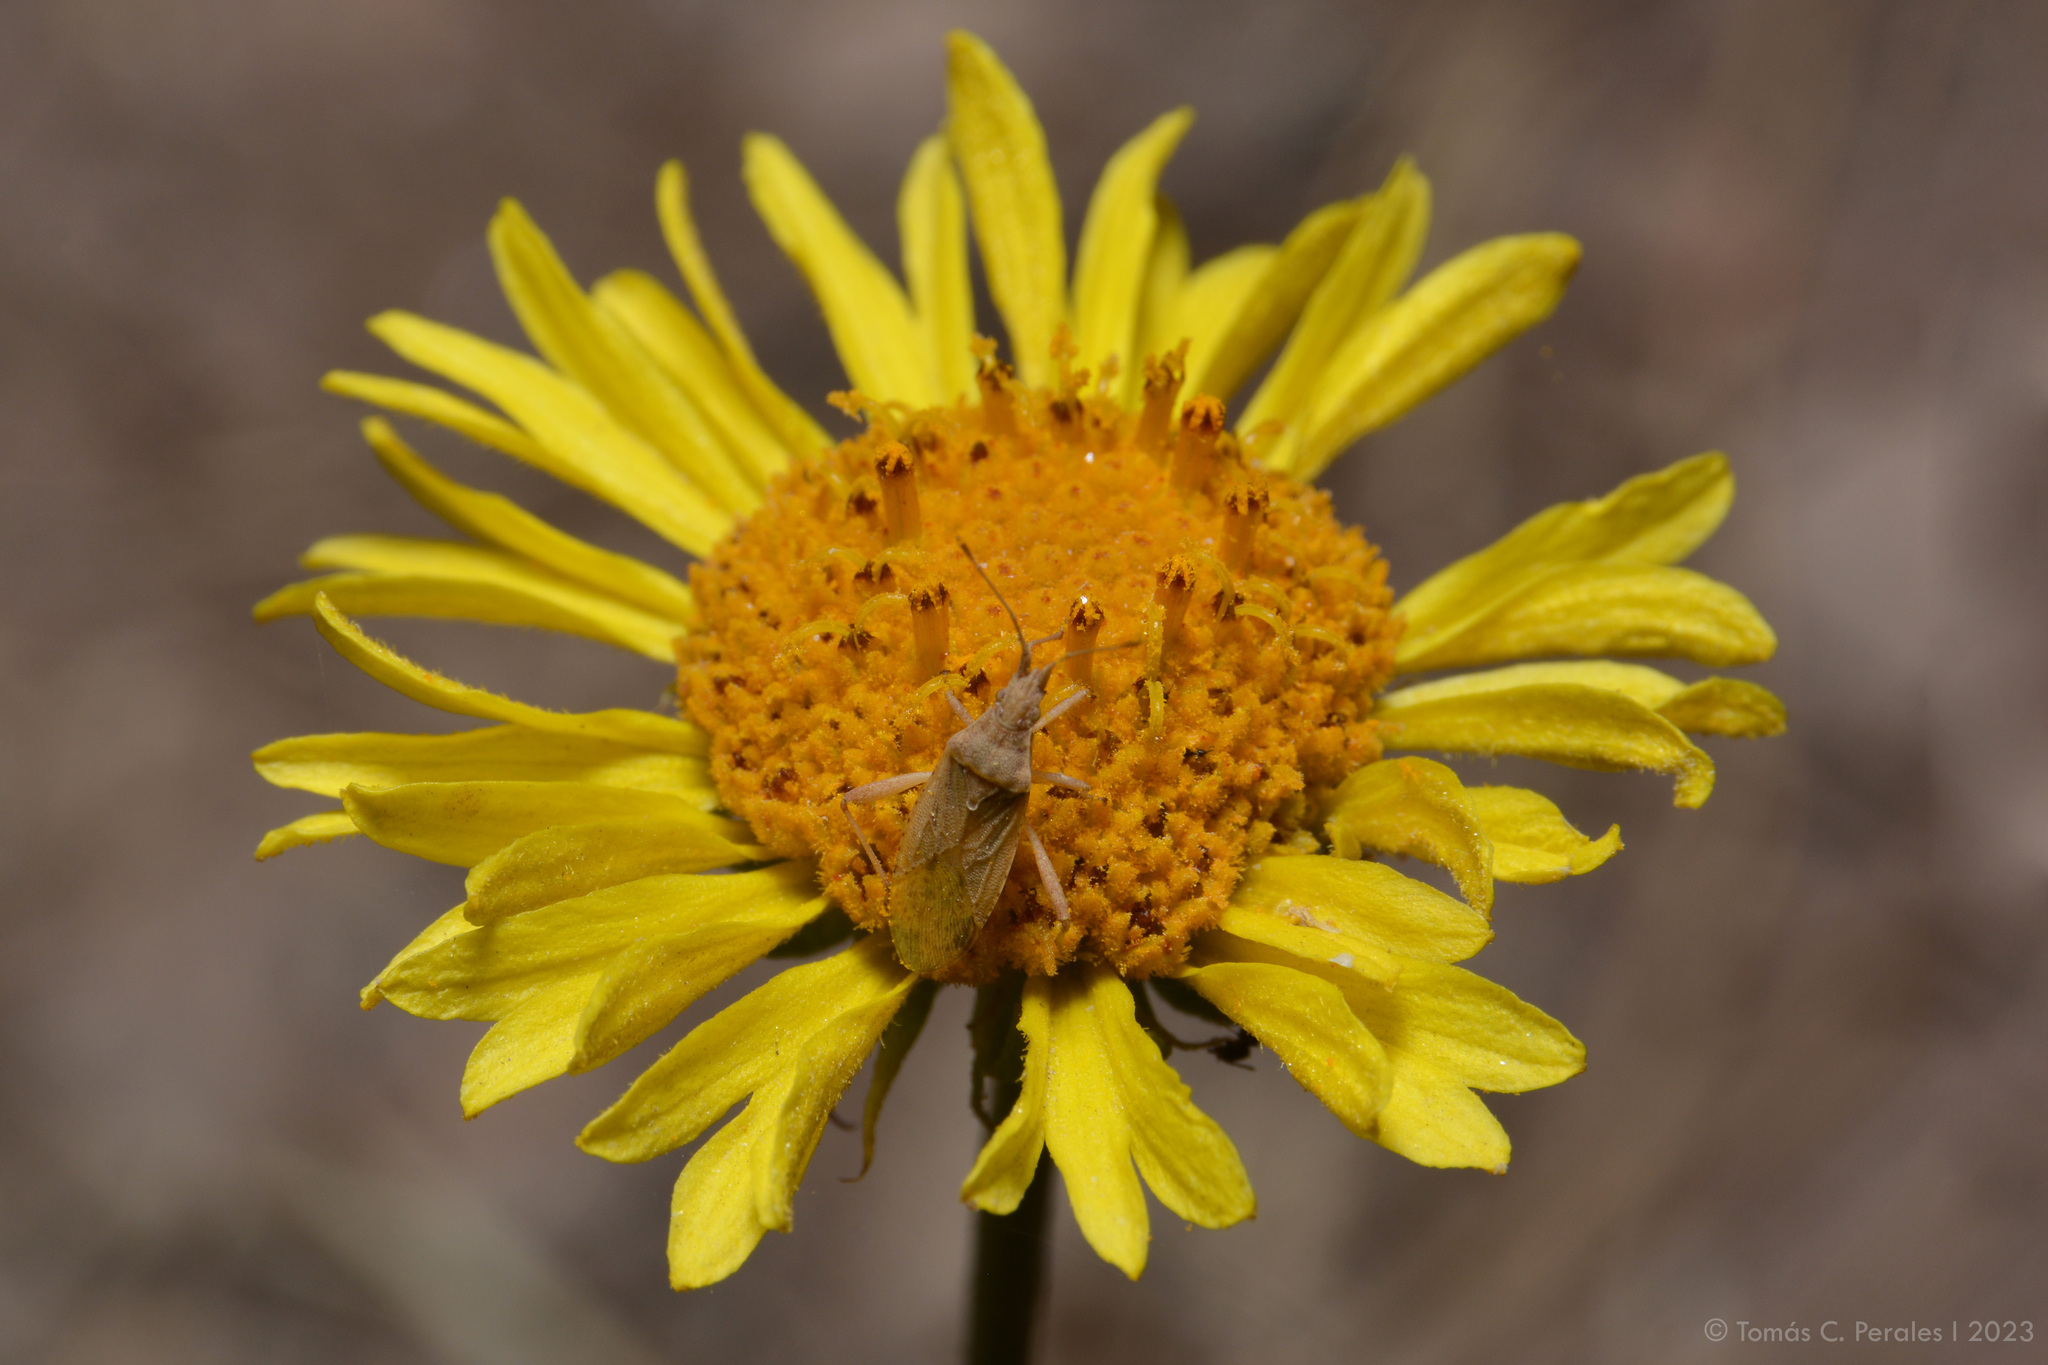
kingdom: Plantae
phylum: Tracheophyta
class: Magnoliopsida
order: Asterales
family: Asteraceae
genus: Gaillardia
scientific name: Gaillardia megapotamica
